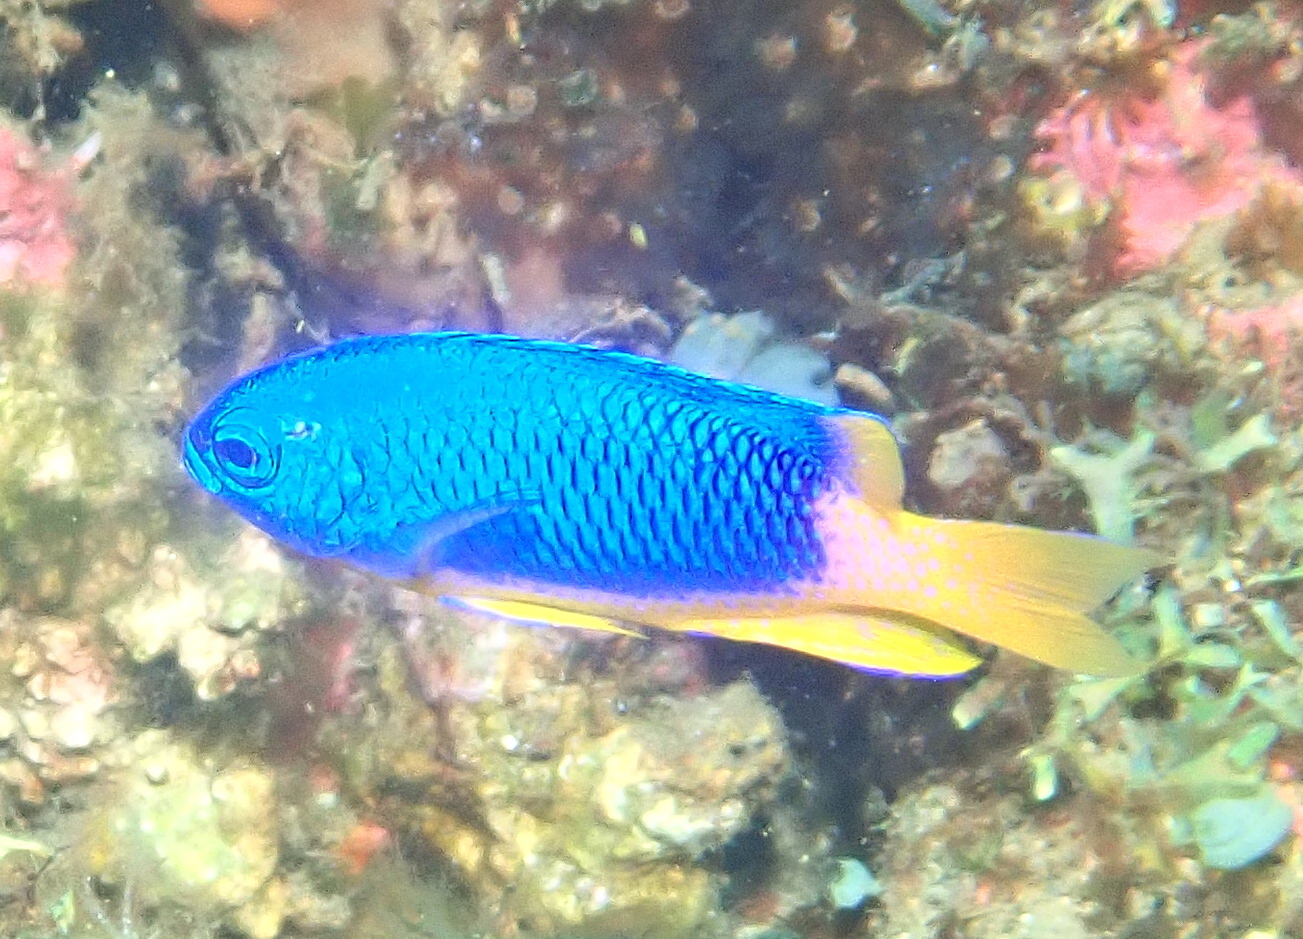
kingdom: Animalia
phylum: Chordata
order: Perciformes
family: Pomacentridae
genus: Pomacentrus
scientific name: Pomacentrus coelestis
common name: Neon damsel
